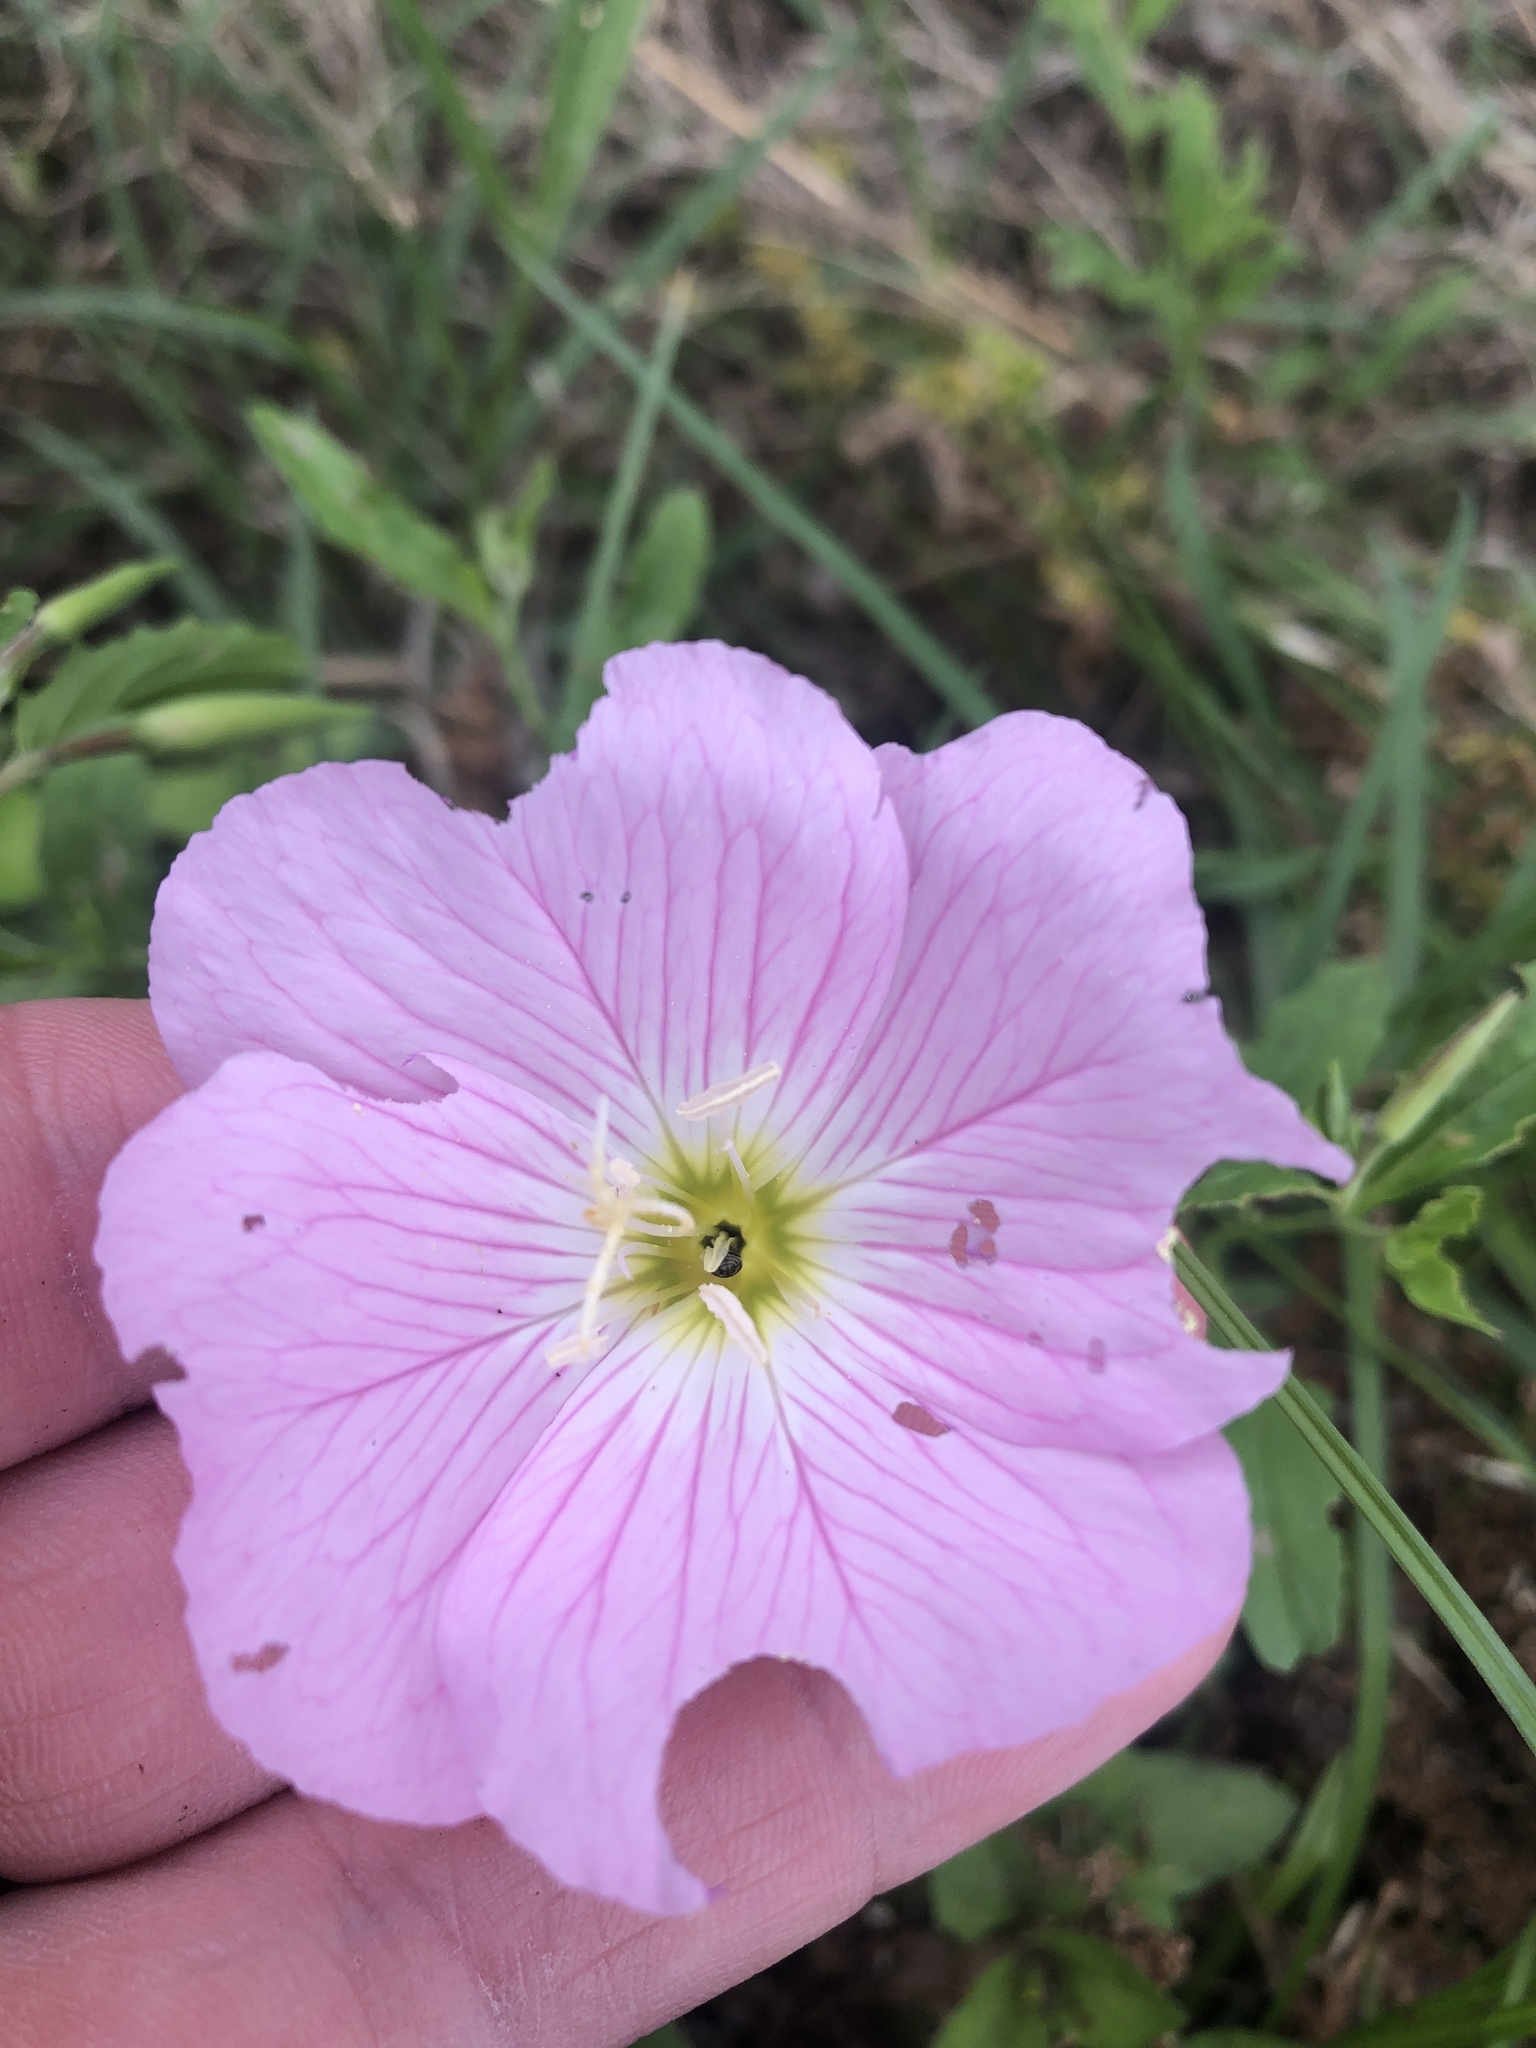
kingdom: Plantae
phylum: Tracheophyta
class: Magnoliopsida
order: Myrtales
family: Onagraceae
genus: Oenothera
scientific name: Oenothera speciosa
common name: White evening-primrose
